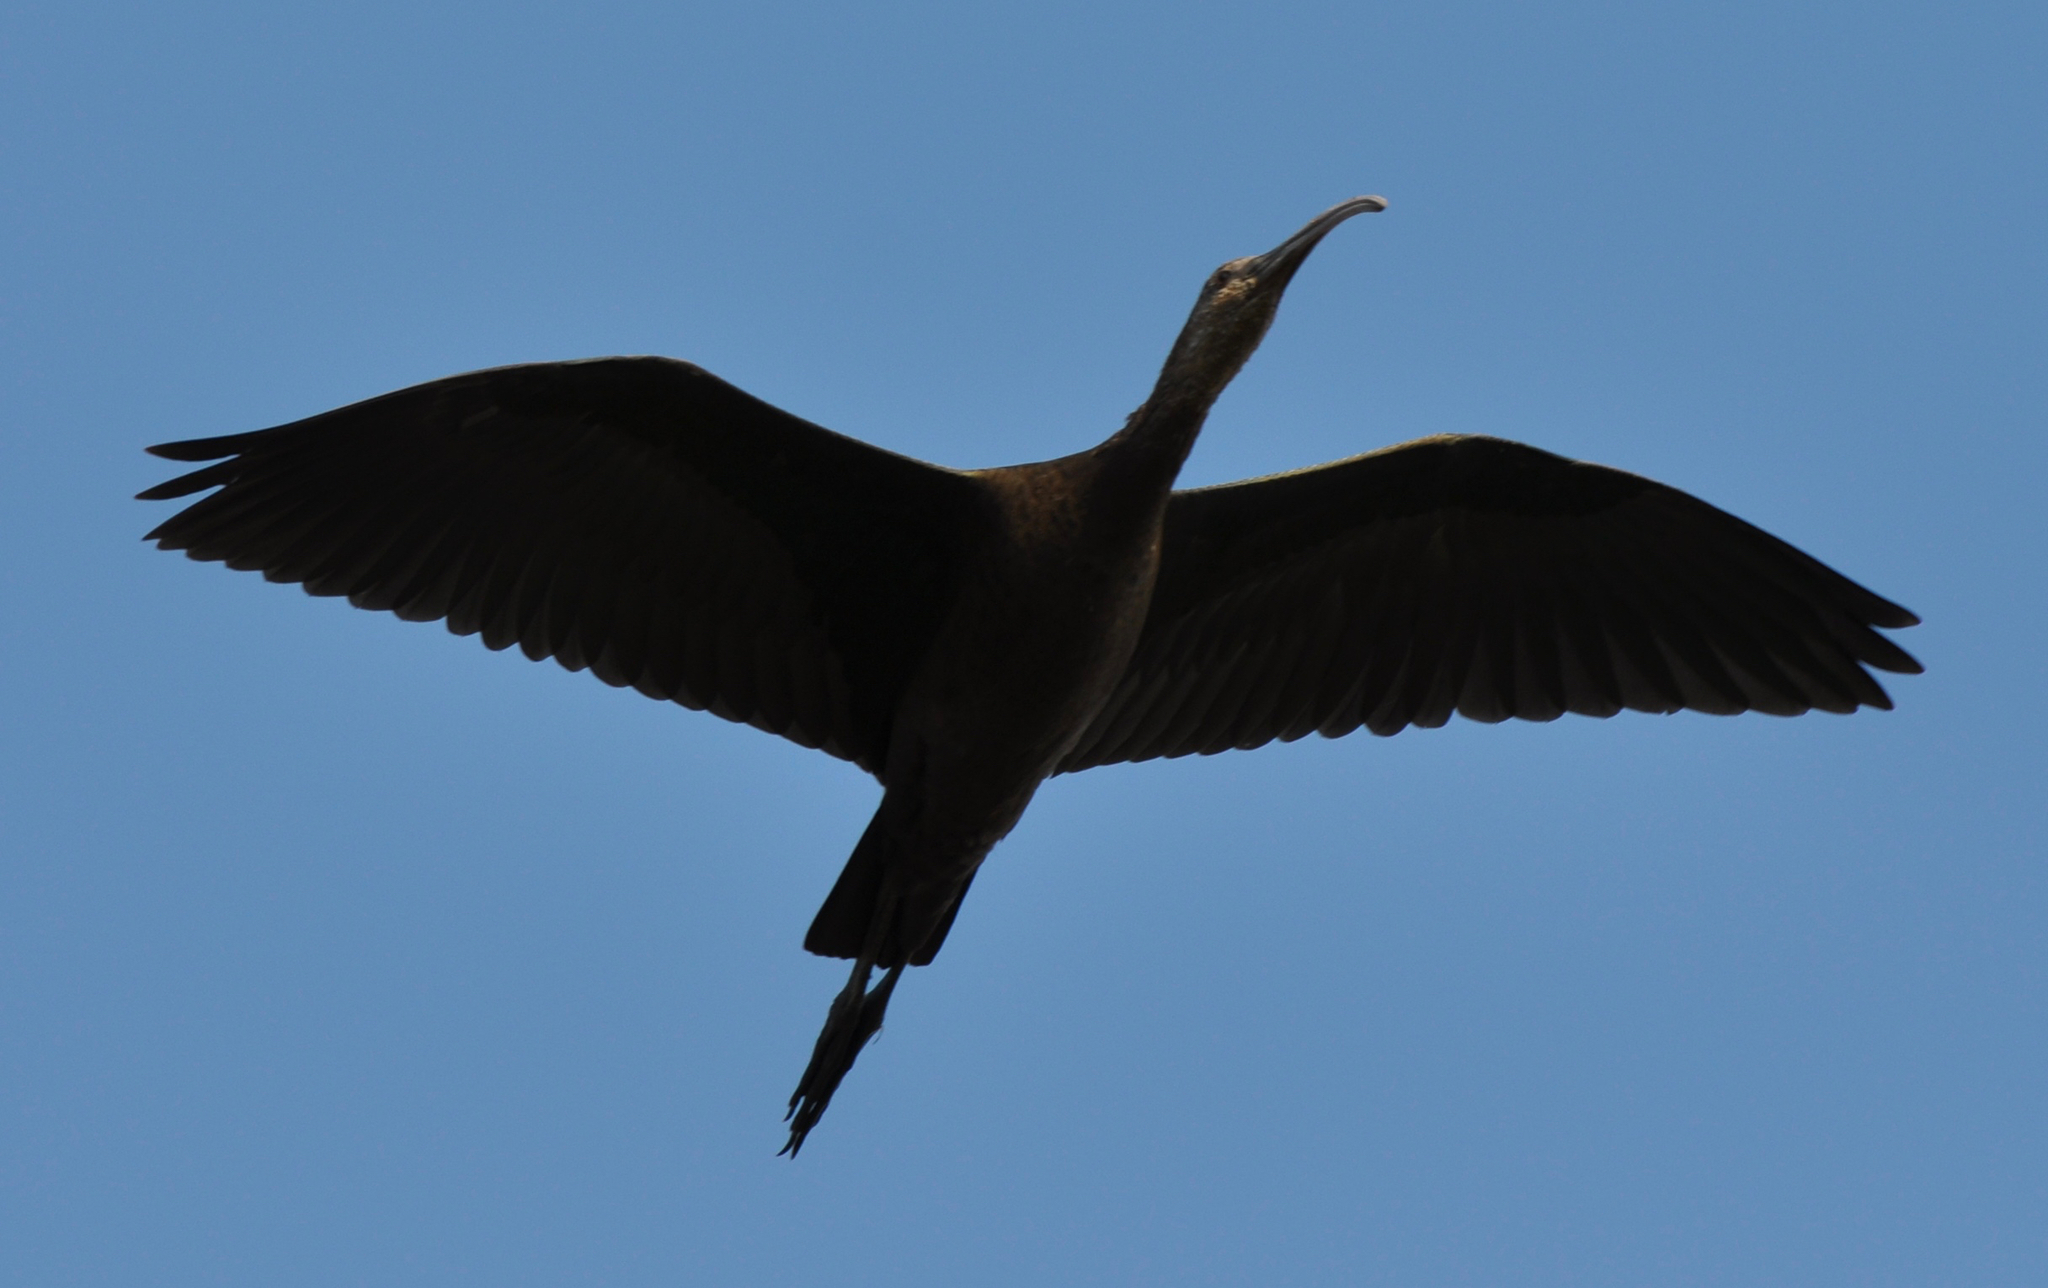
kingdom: Animalia
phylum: Chordata
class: Aves
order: Pelecaniformes
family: Threskiornithidae
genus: Plegadis
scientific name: Plegadis chihi
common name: White-faced ibis
